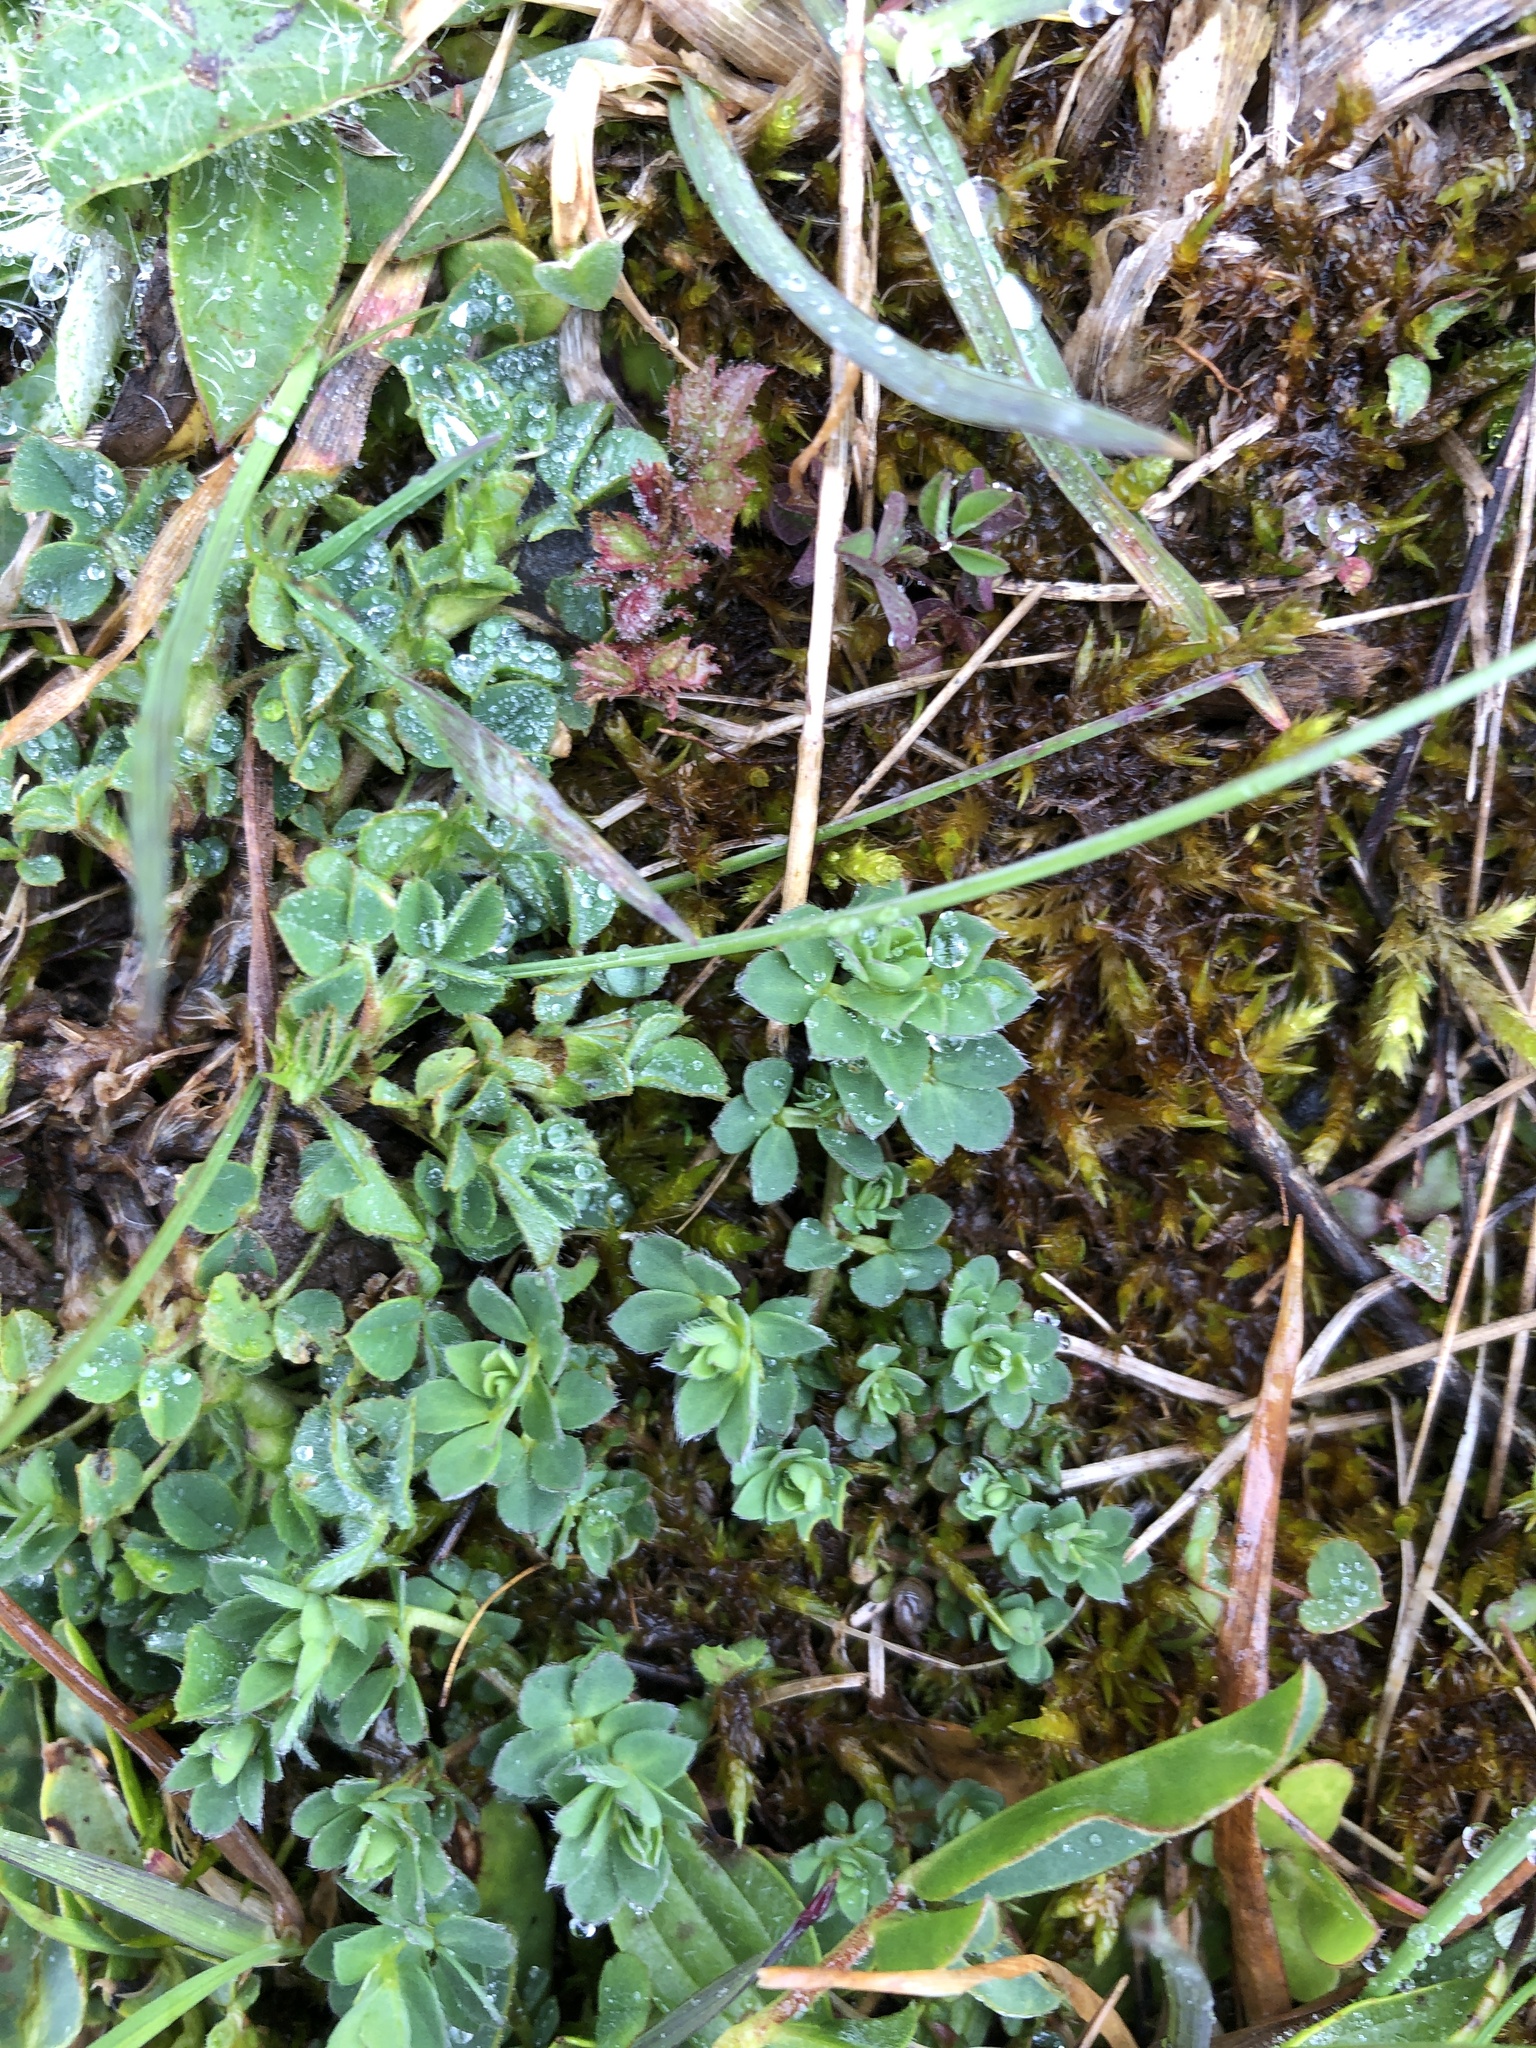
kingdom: Plantae
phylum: Tracheophyta
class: Magnoliopsida
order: Fabales
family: Fabaceae
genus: Lotus
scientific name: Lotus corniculatus
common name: Common bird's-foot-trefoil
